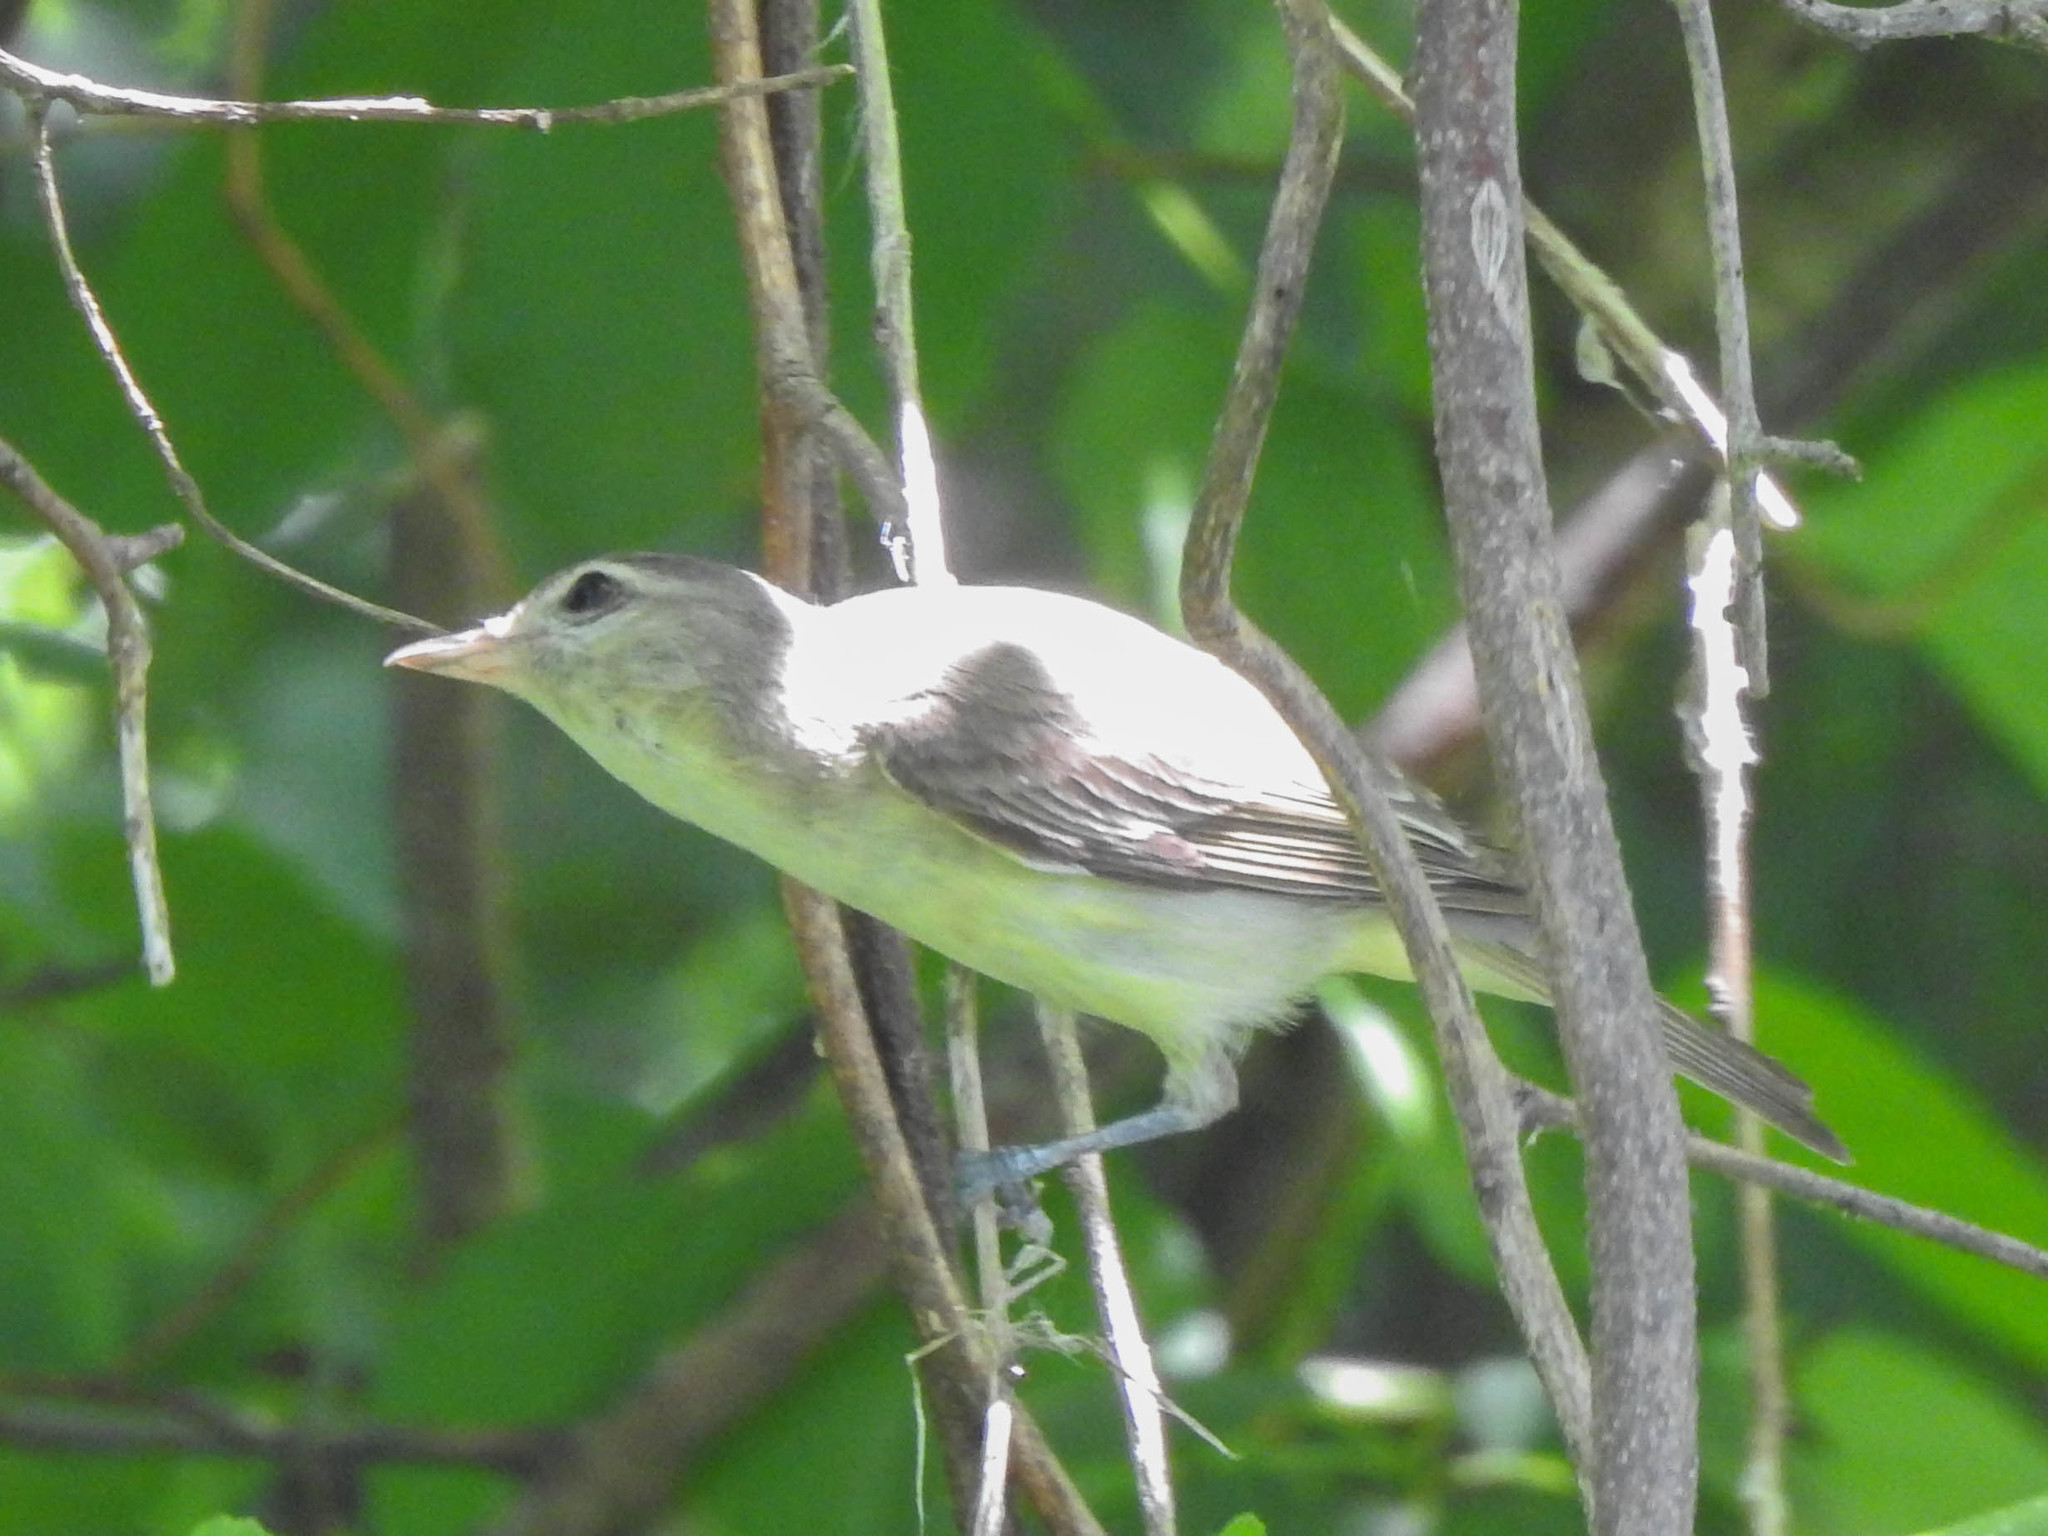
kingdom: Animalia
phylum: Chordata
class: Aves
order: Passeriformes
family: Vireonidae
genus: Vireo
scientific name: Vireo gilvus
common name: Warbling vireo
